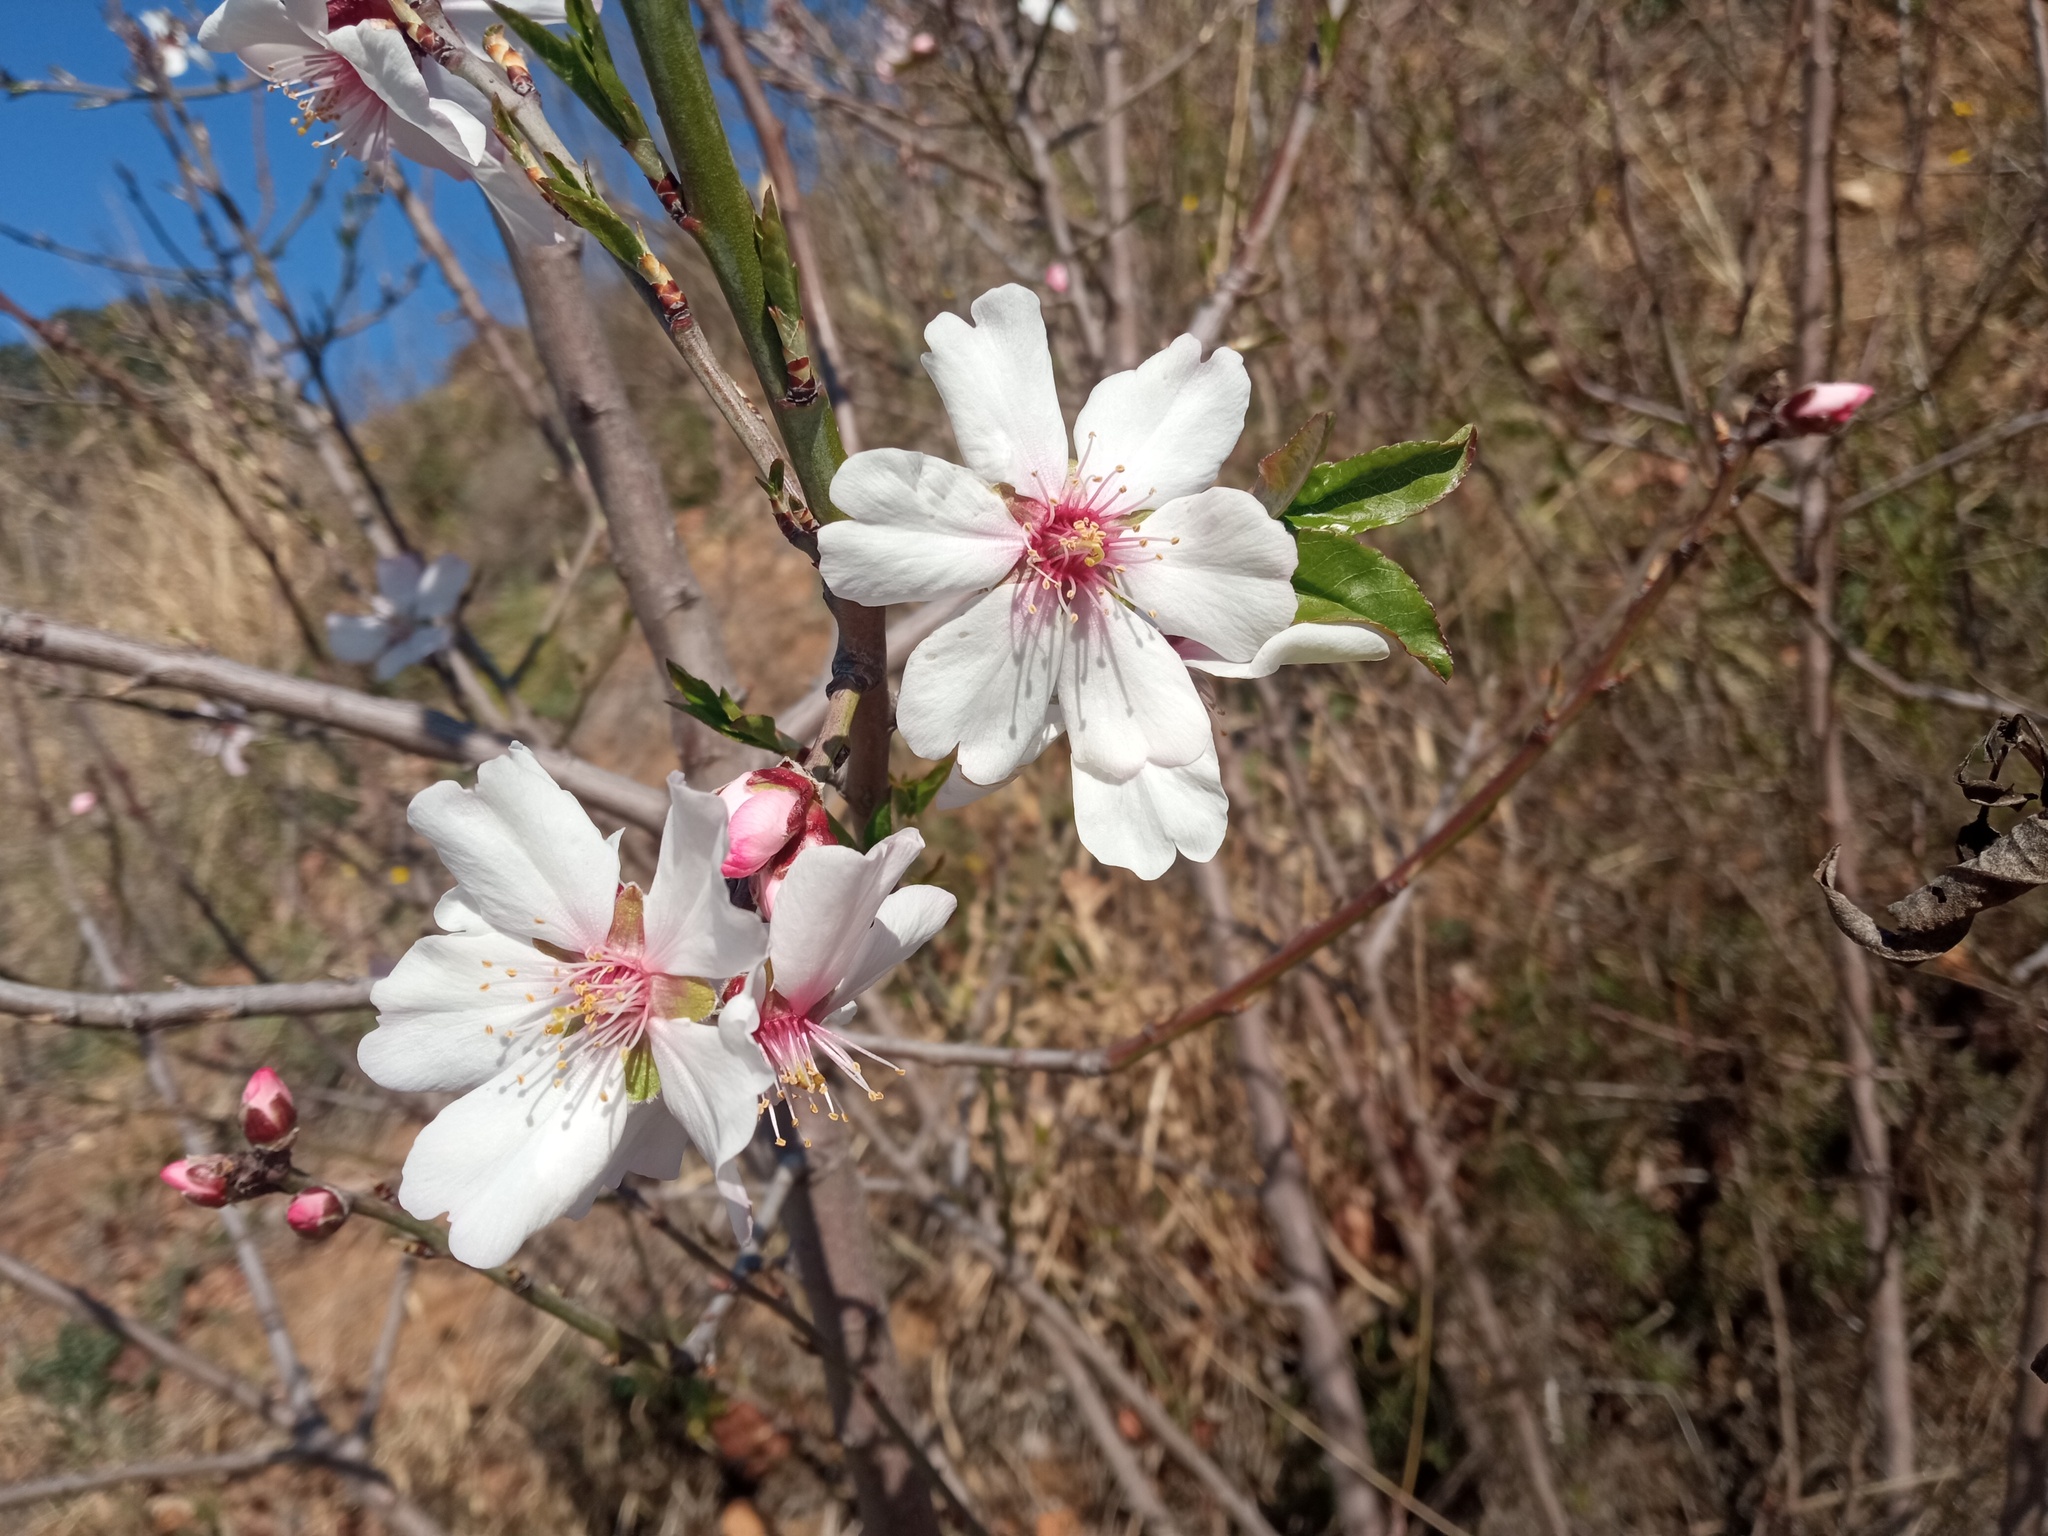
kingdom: Plantae
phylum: Tracheophyta
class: Magnoliopsida
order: Rosales
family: Rosaceae
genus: Prunus
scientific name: Prunus amygdalus
